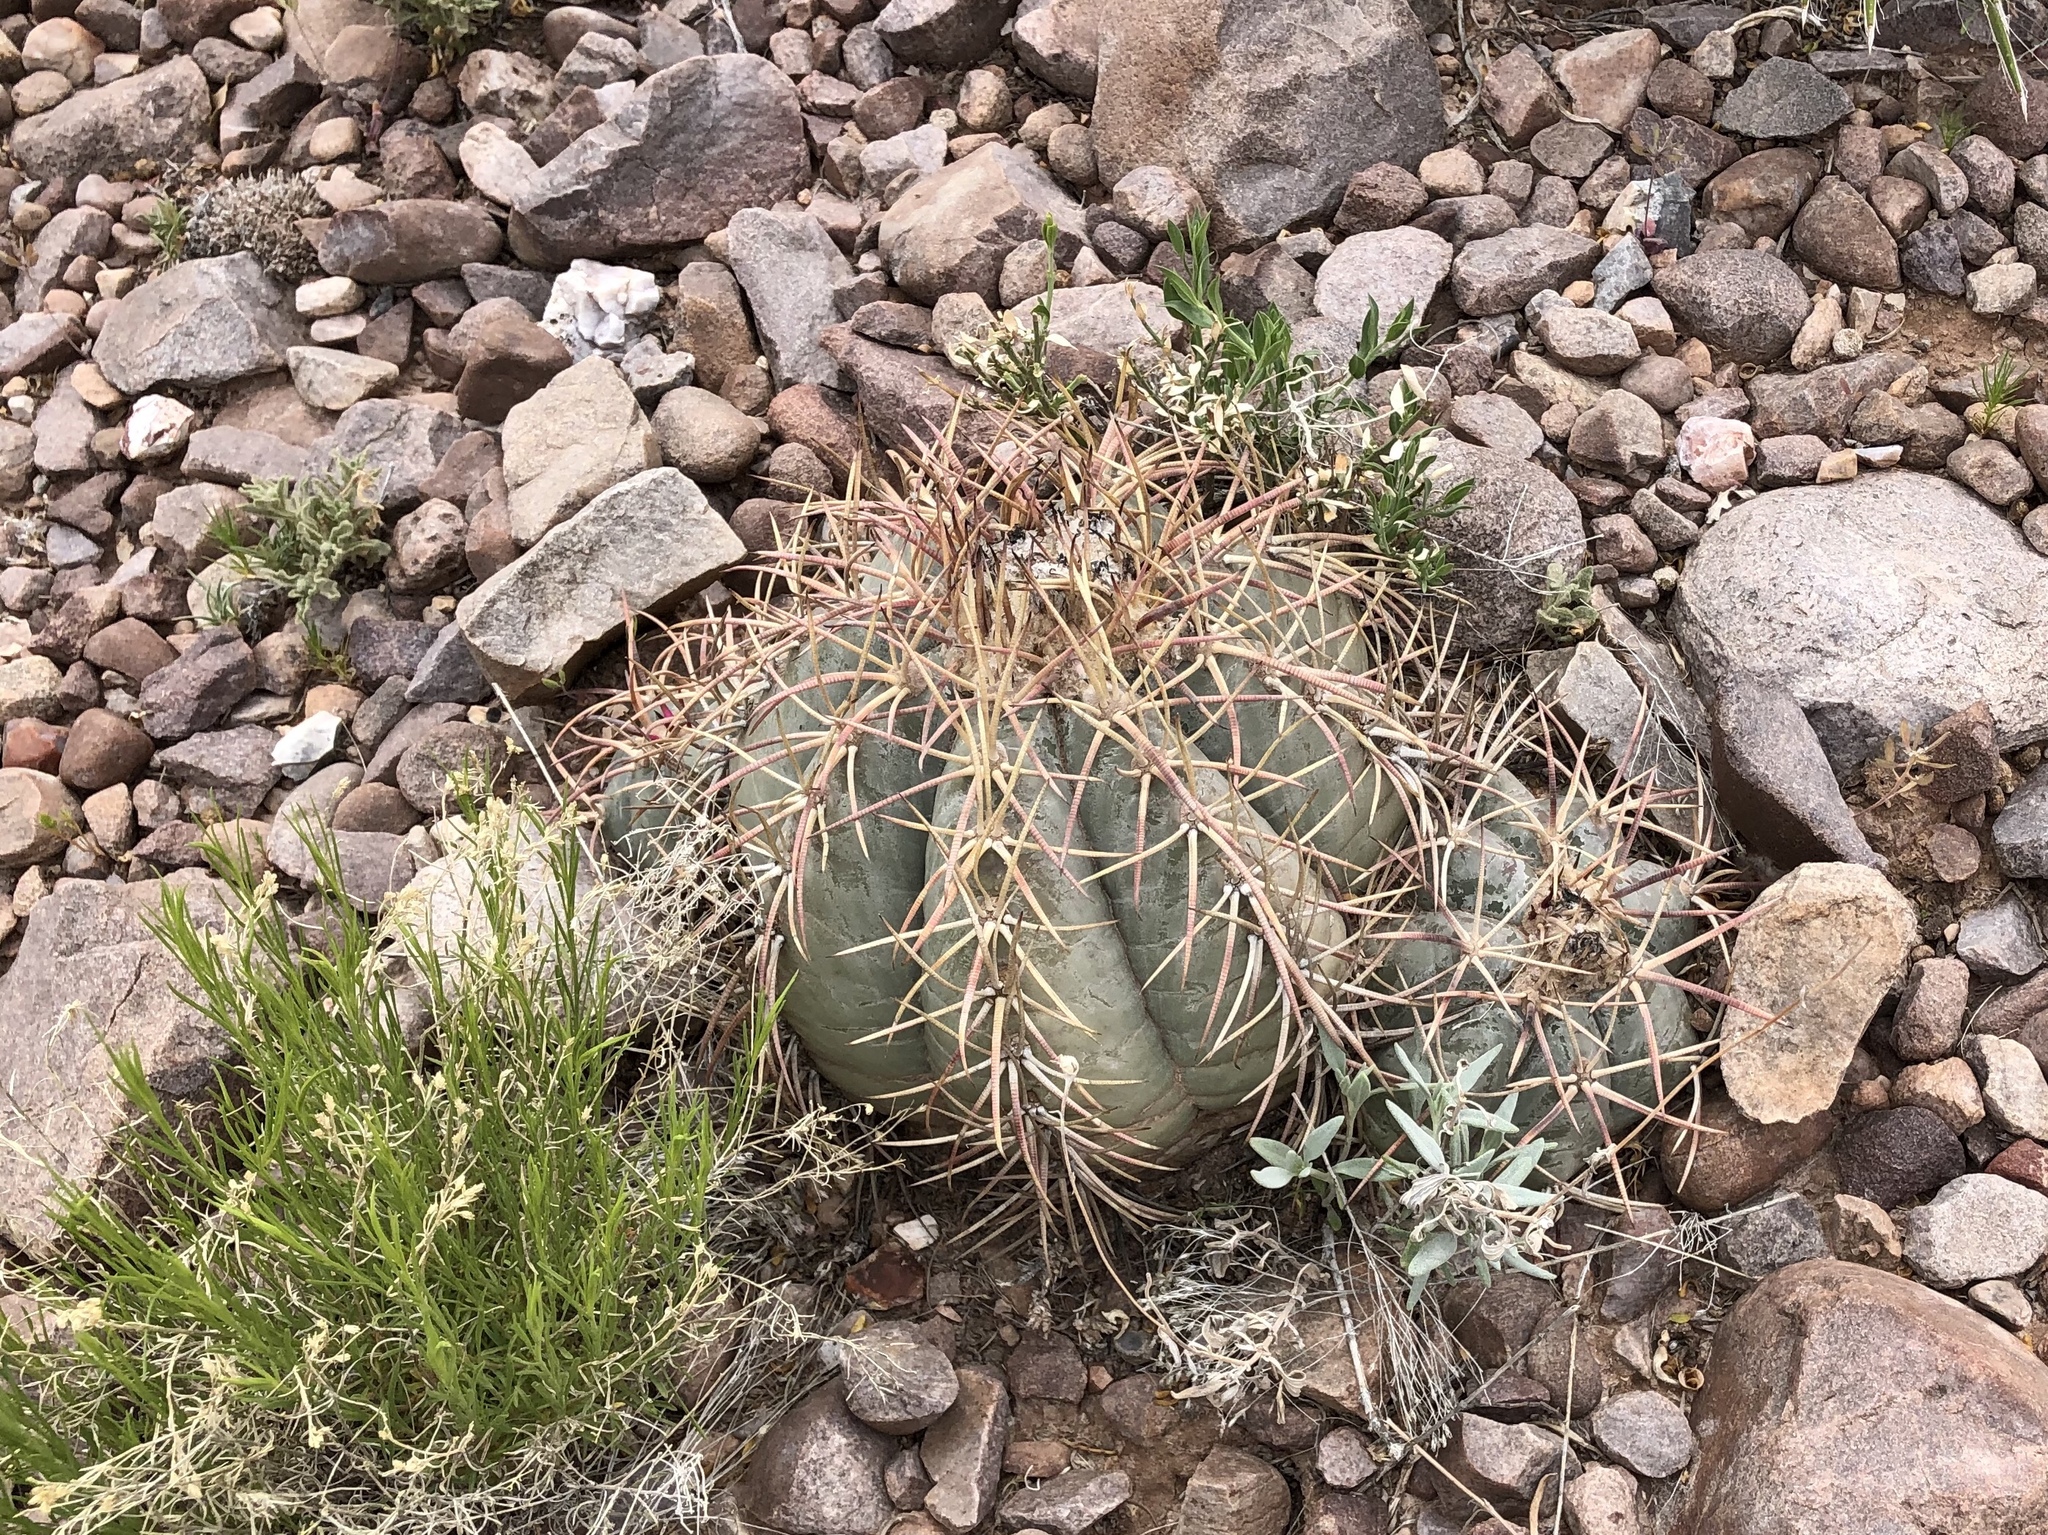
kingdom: Plantae
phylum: Tracheophyta
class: Magnoliopsida
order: Caryophyllales
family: Cactaceae
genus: Echinocactus
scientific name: Echinocactus horizonthalonius
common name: Devilshead
